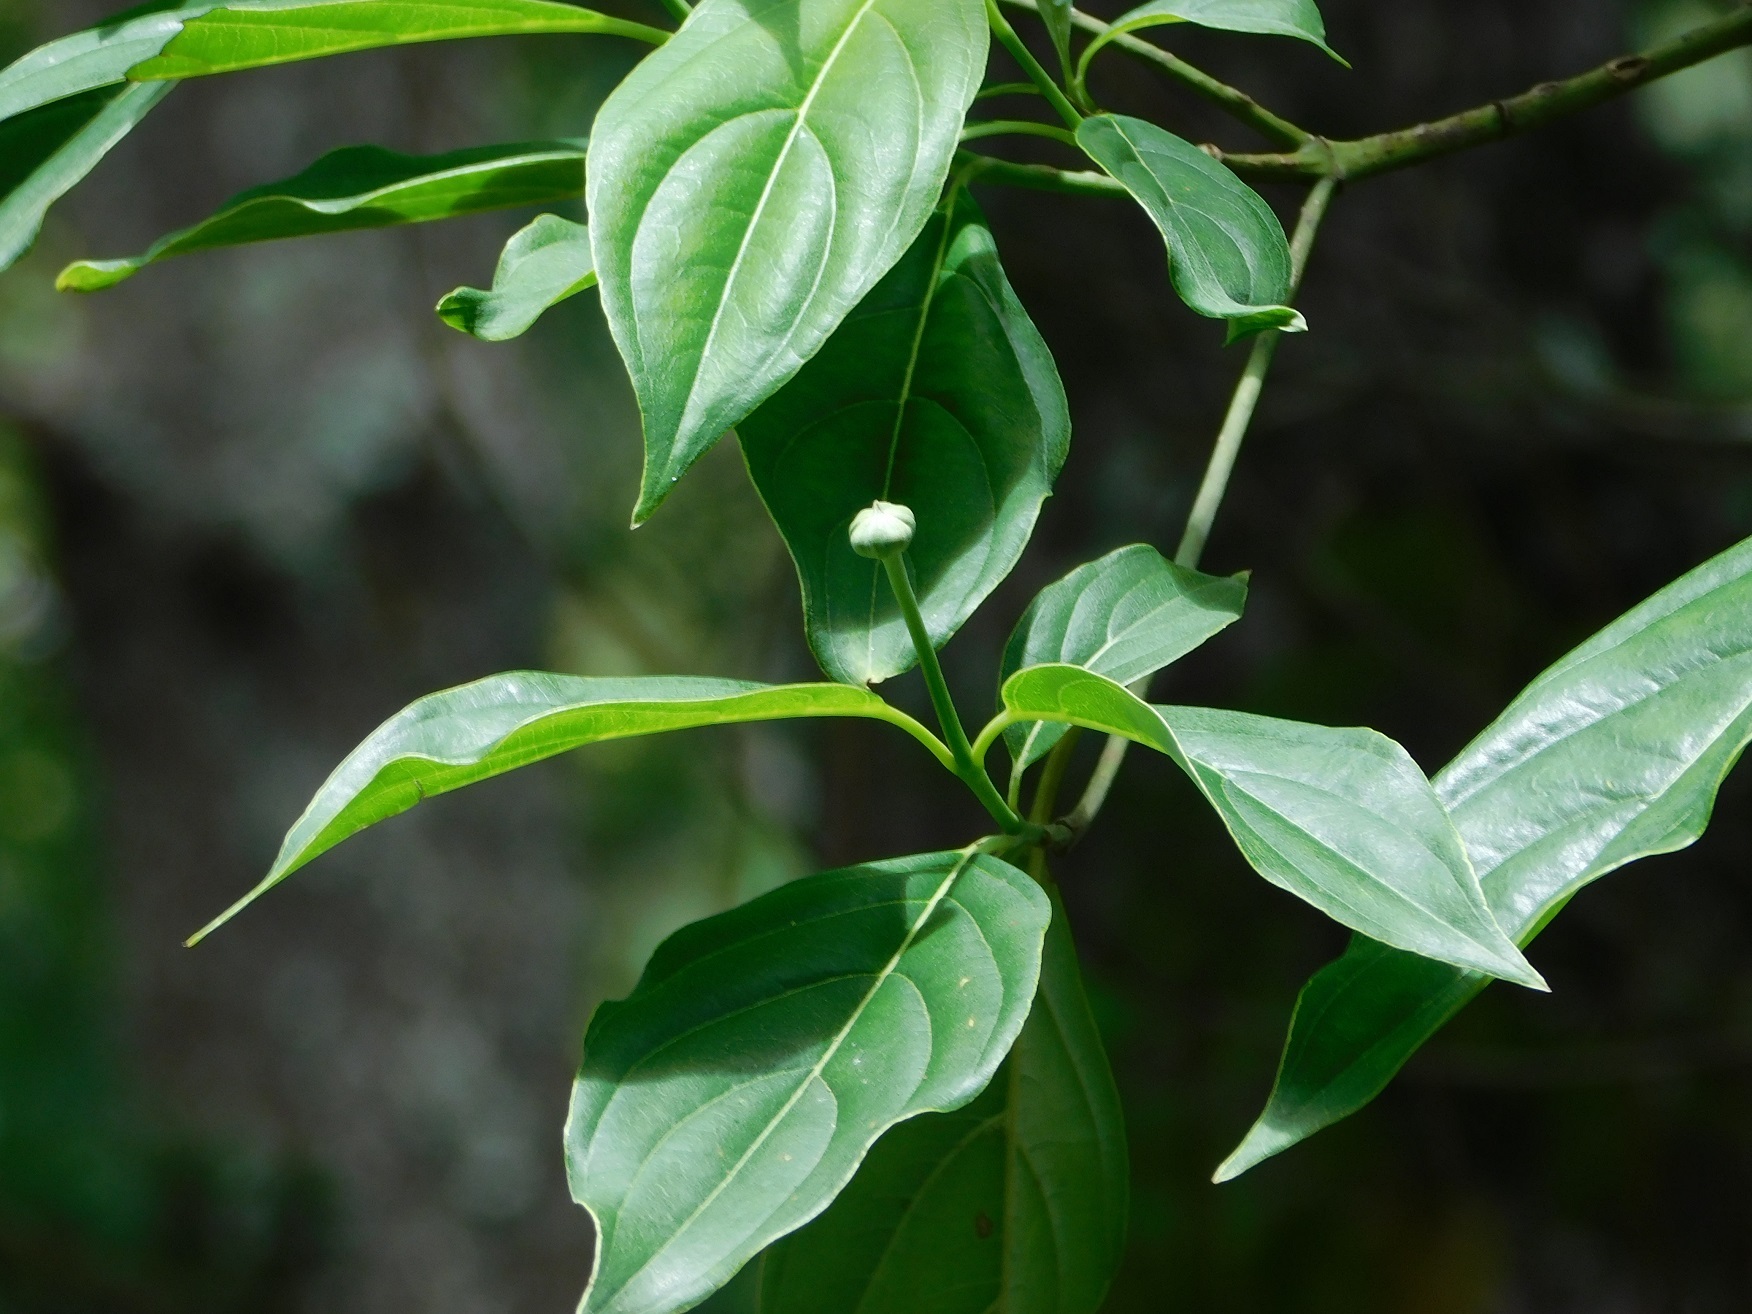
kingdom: Plantae
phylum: Tracheophyta
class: Magnoliopsida
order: Cornales
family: Cornaceae
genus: Cornus
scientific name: Cornus disciflora
